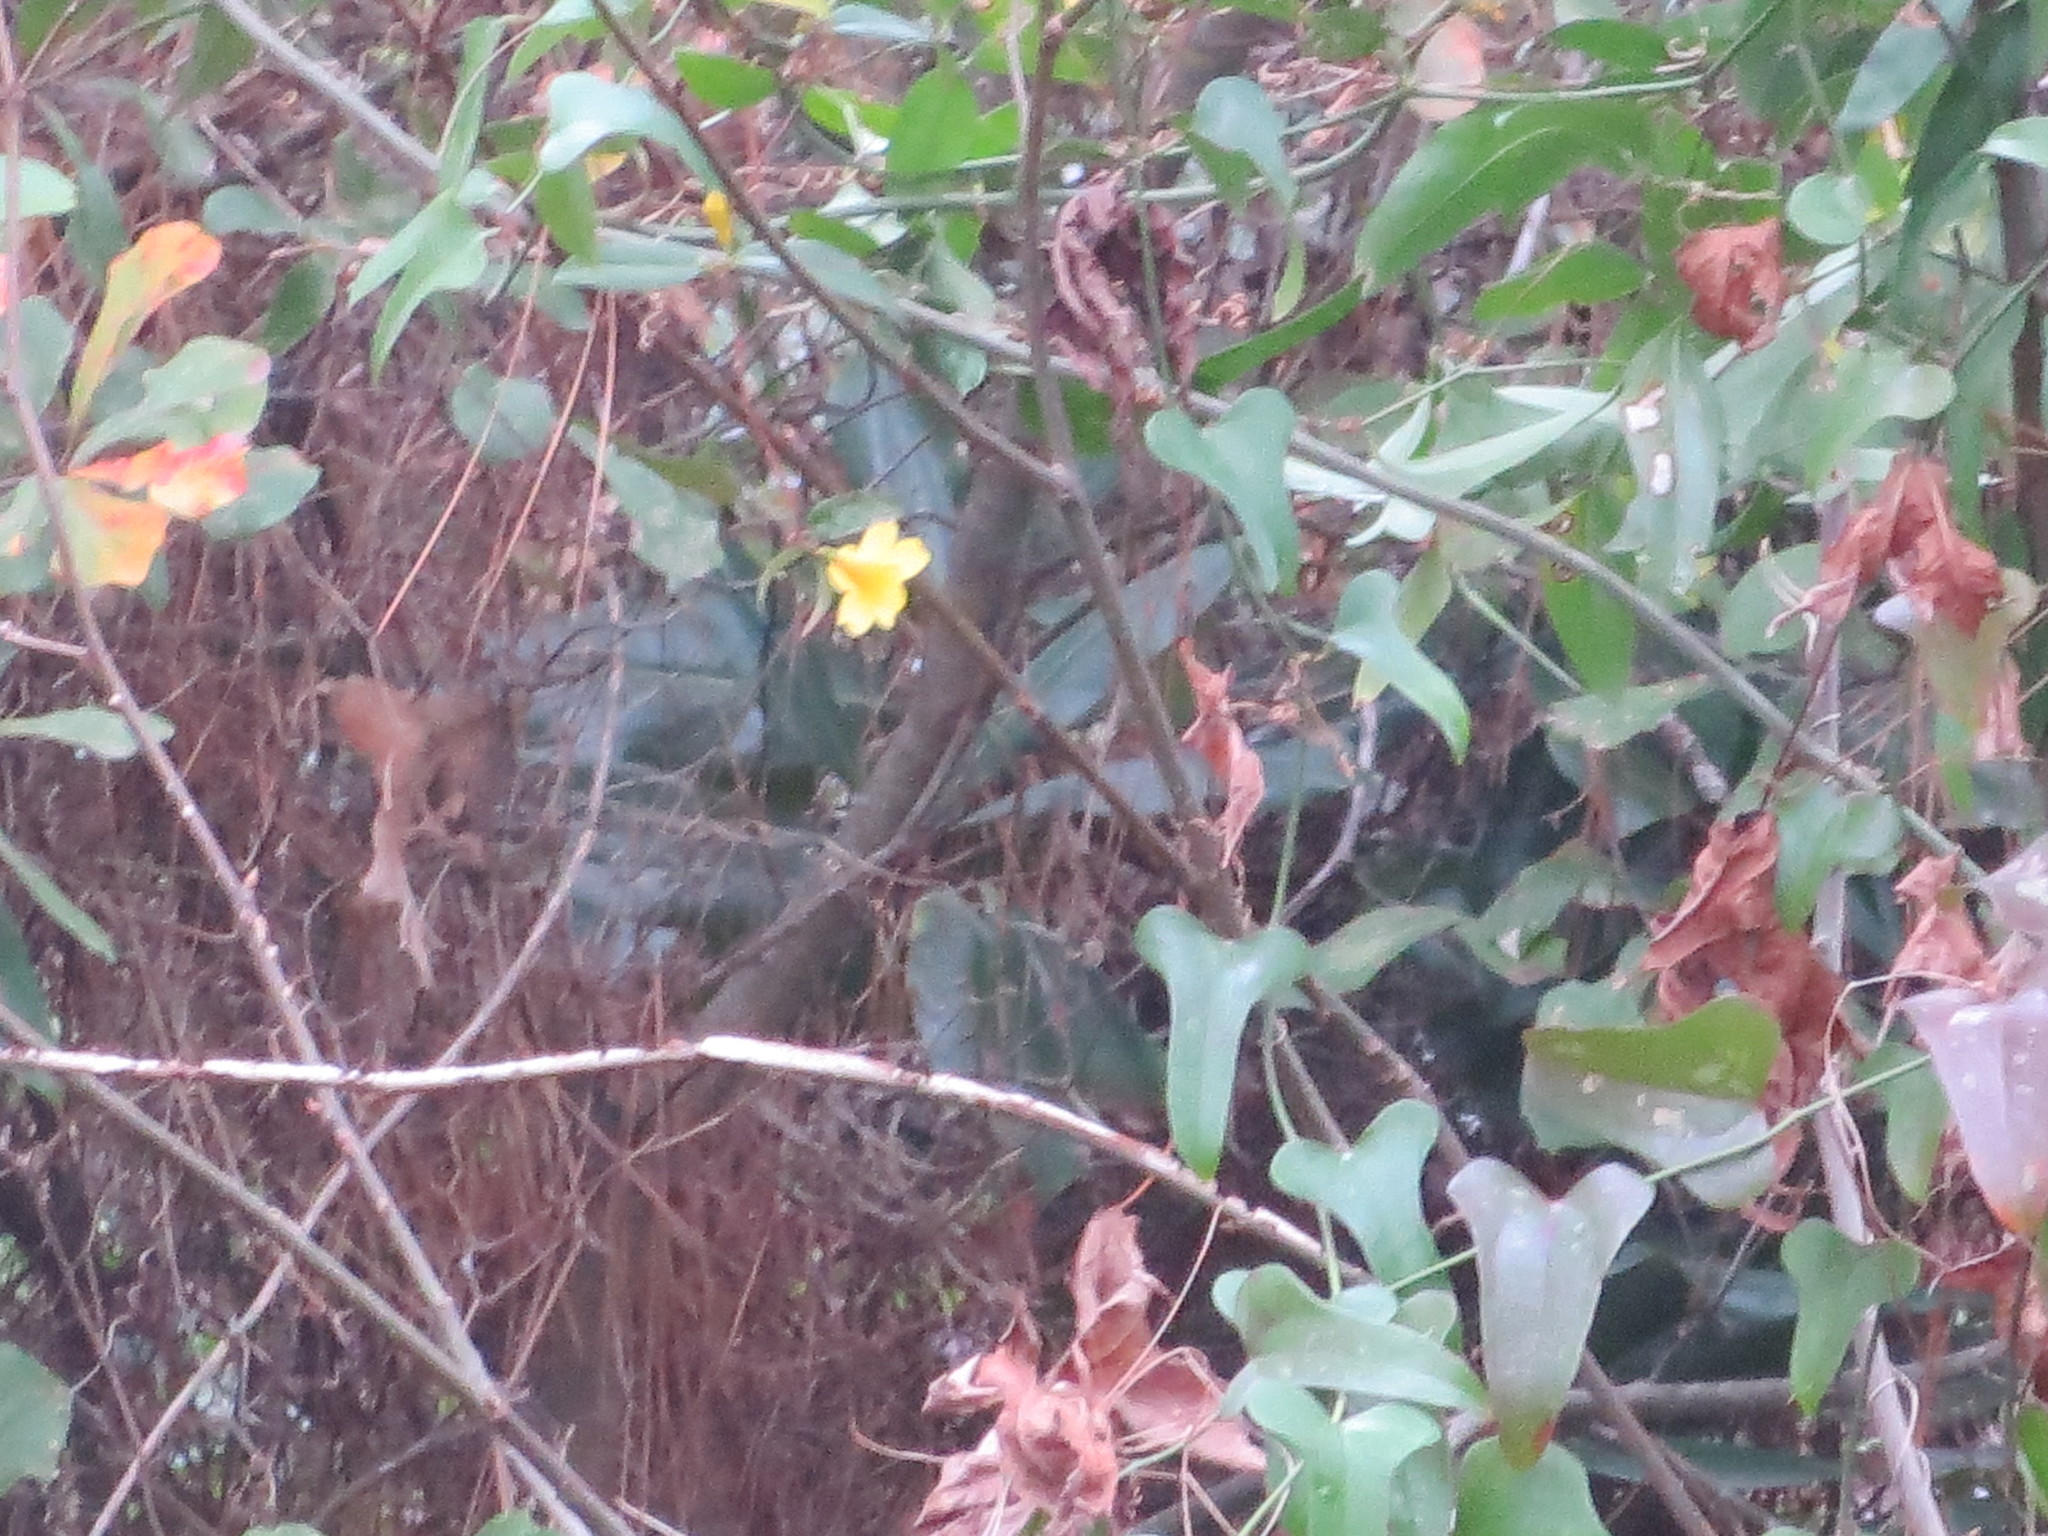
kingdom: Plantae
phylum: Tracheophyta
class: Magnoliopsida
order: Gentianales
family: Gelsemiaceae
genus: Gelsemium
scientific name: Gelsemium sempervirens
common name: Carolina-jasmine
